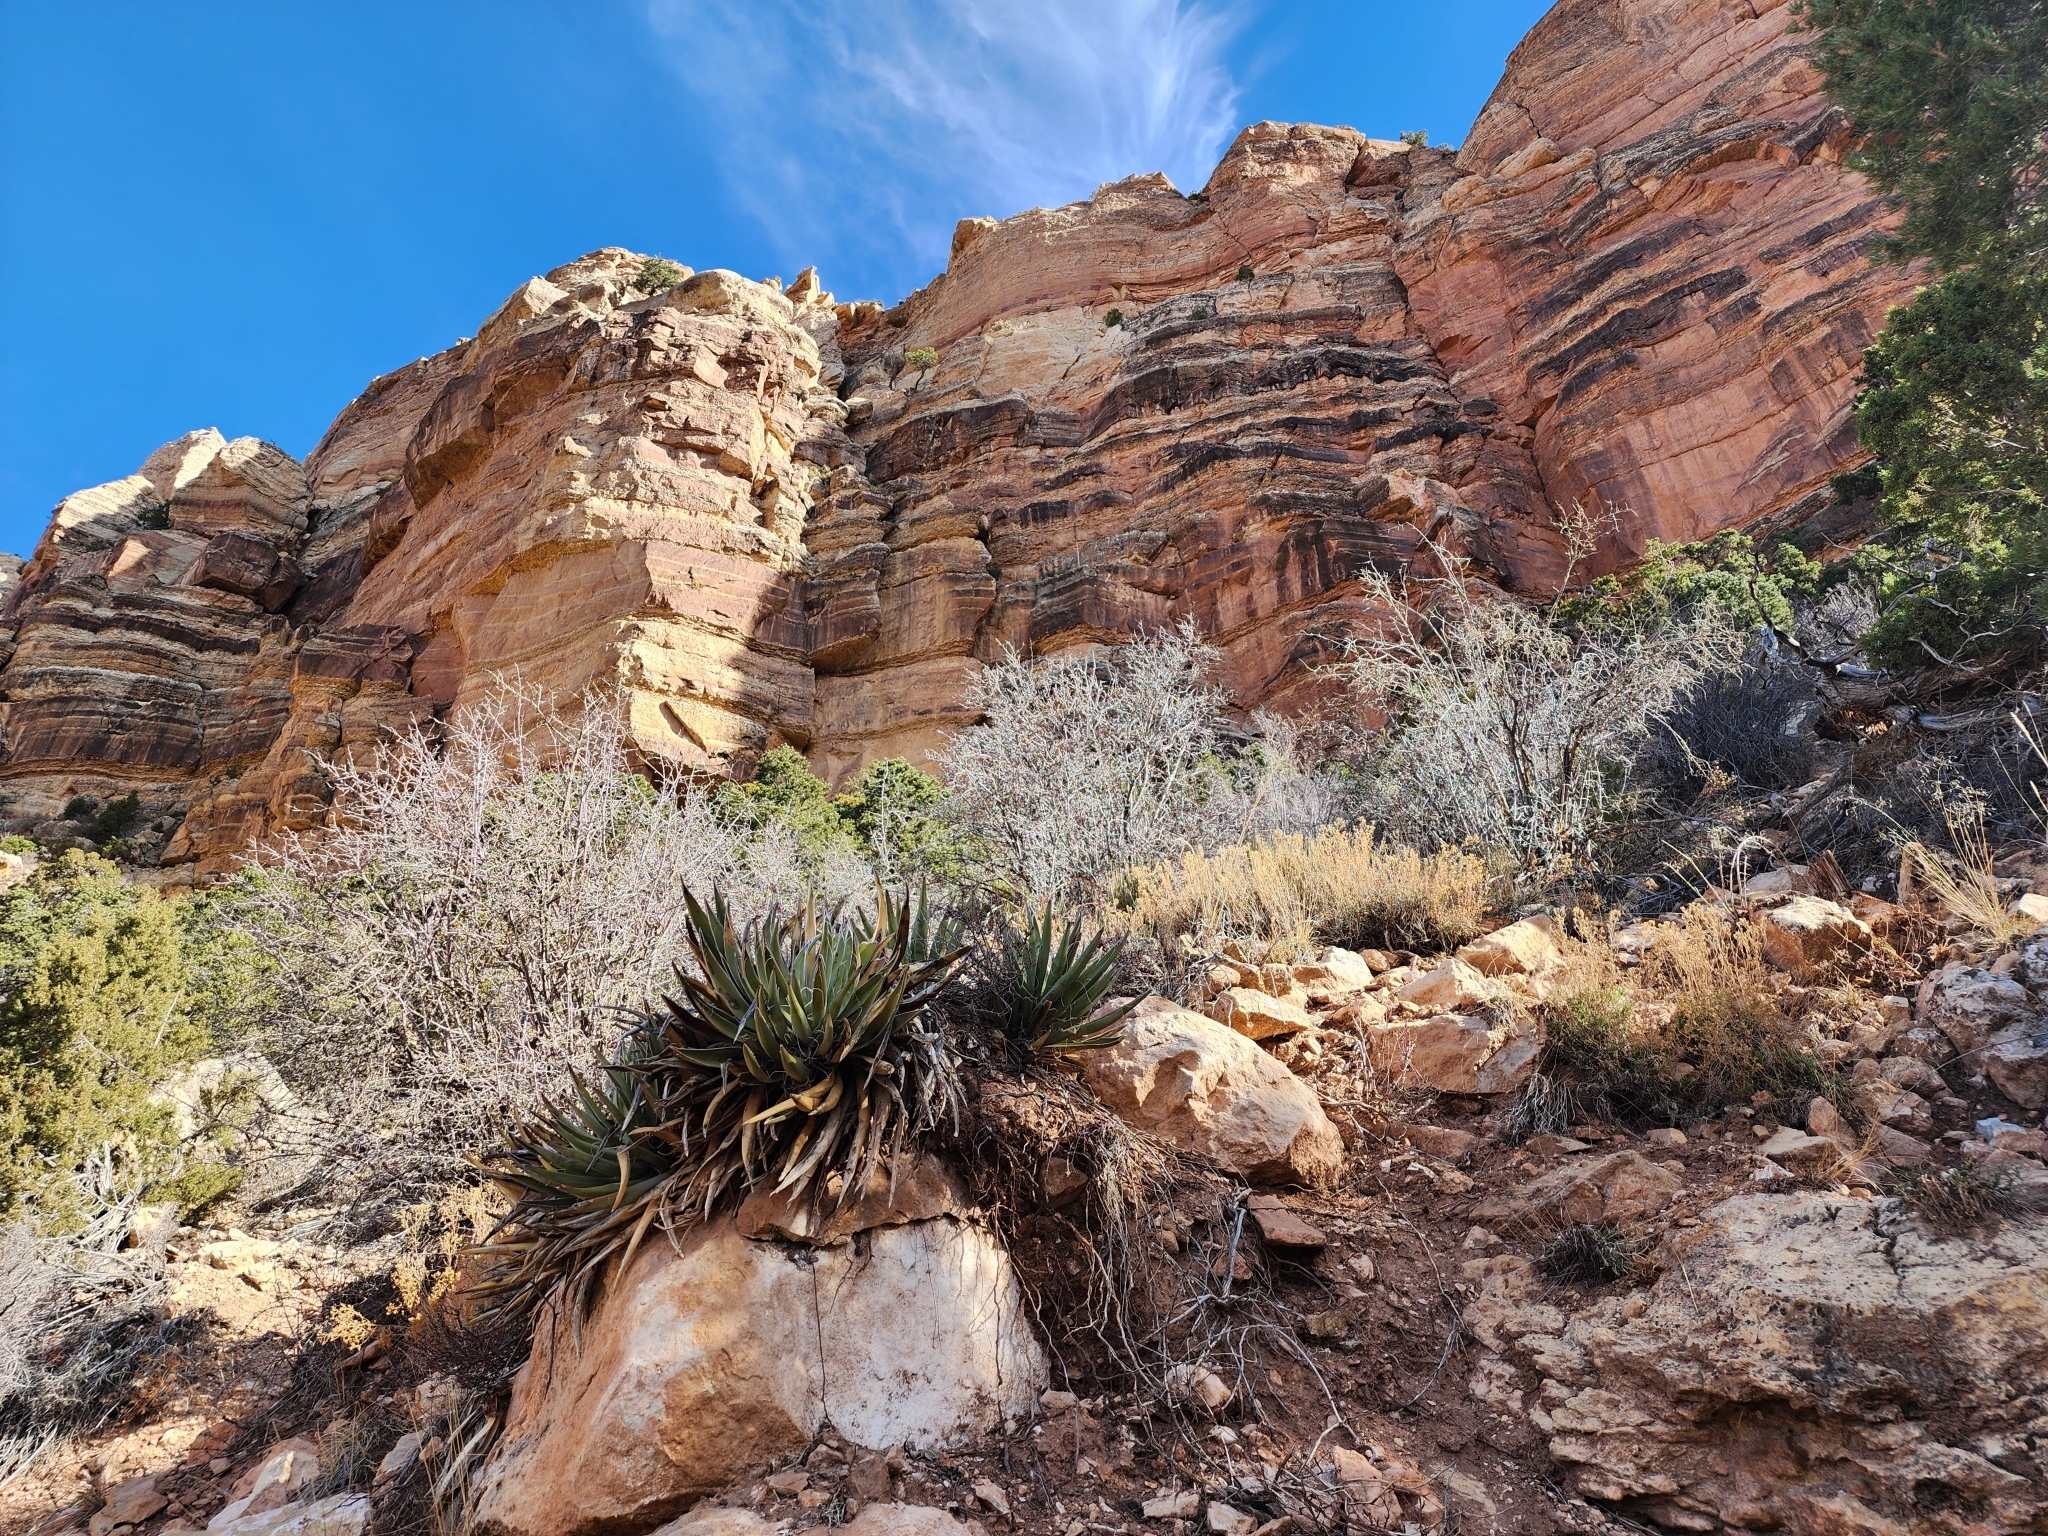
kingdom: Plantae
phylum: Tracheophyta
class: Liliopsida
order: Asparagales
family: Asparagaceae
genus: Yucca
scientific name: Yucca baccata
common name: Banana yucca
